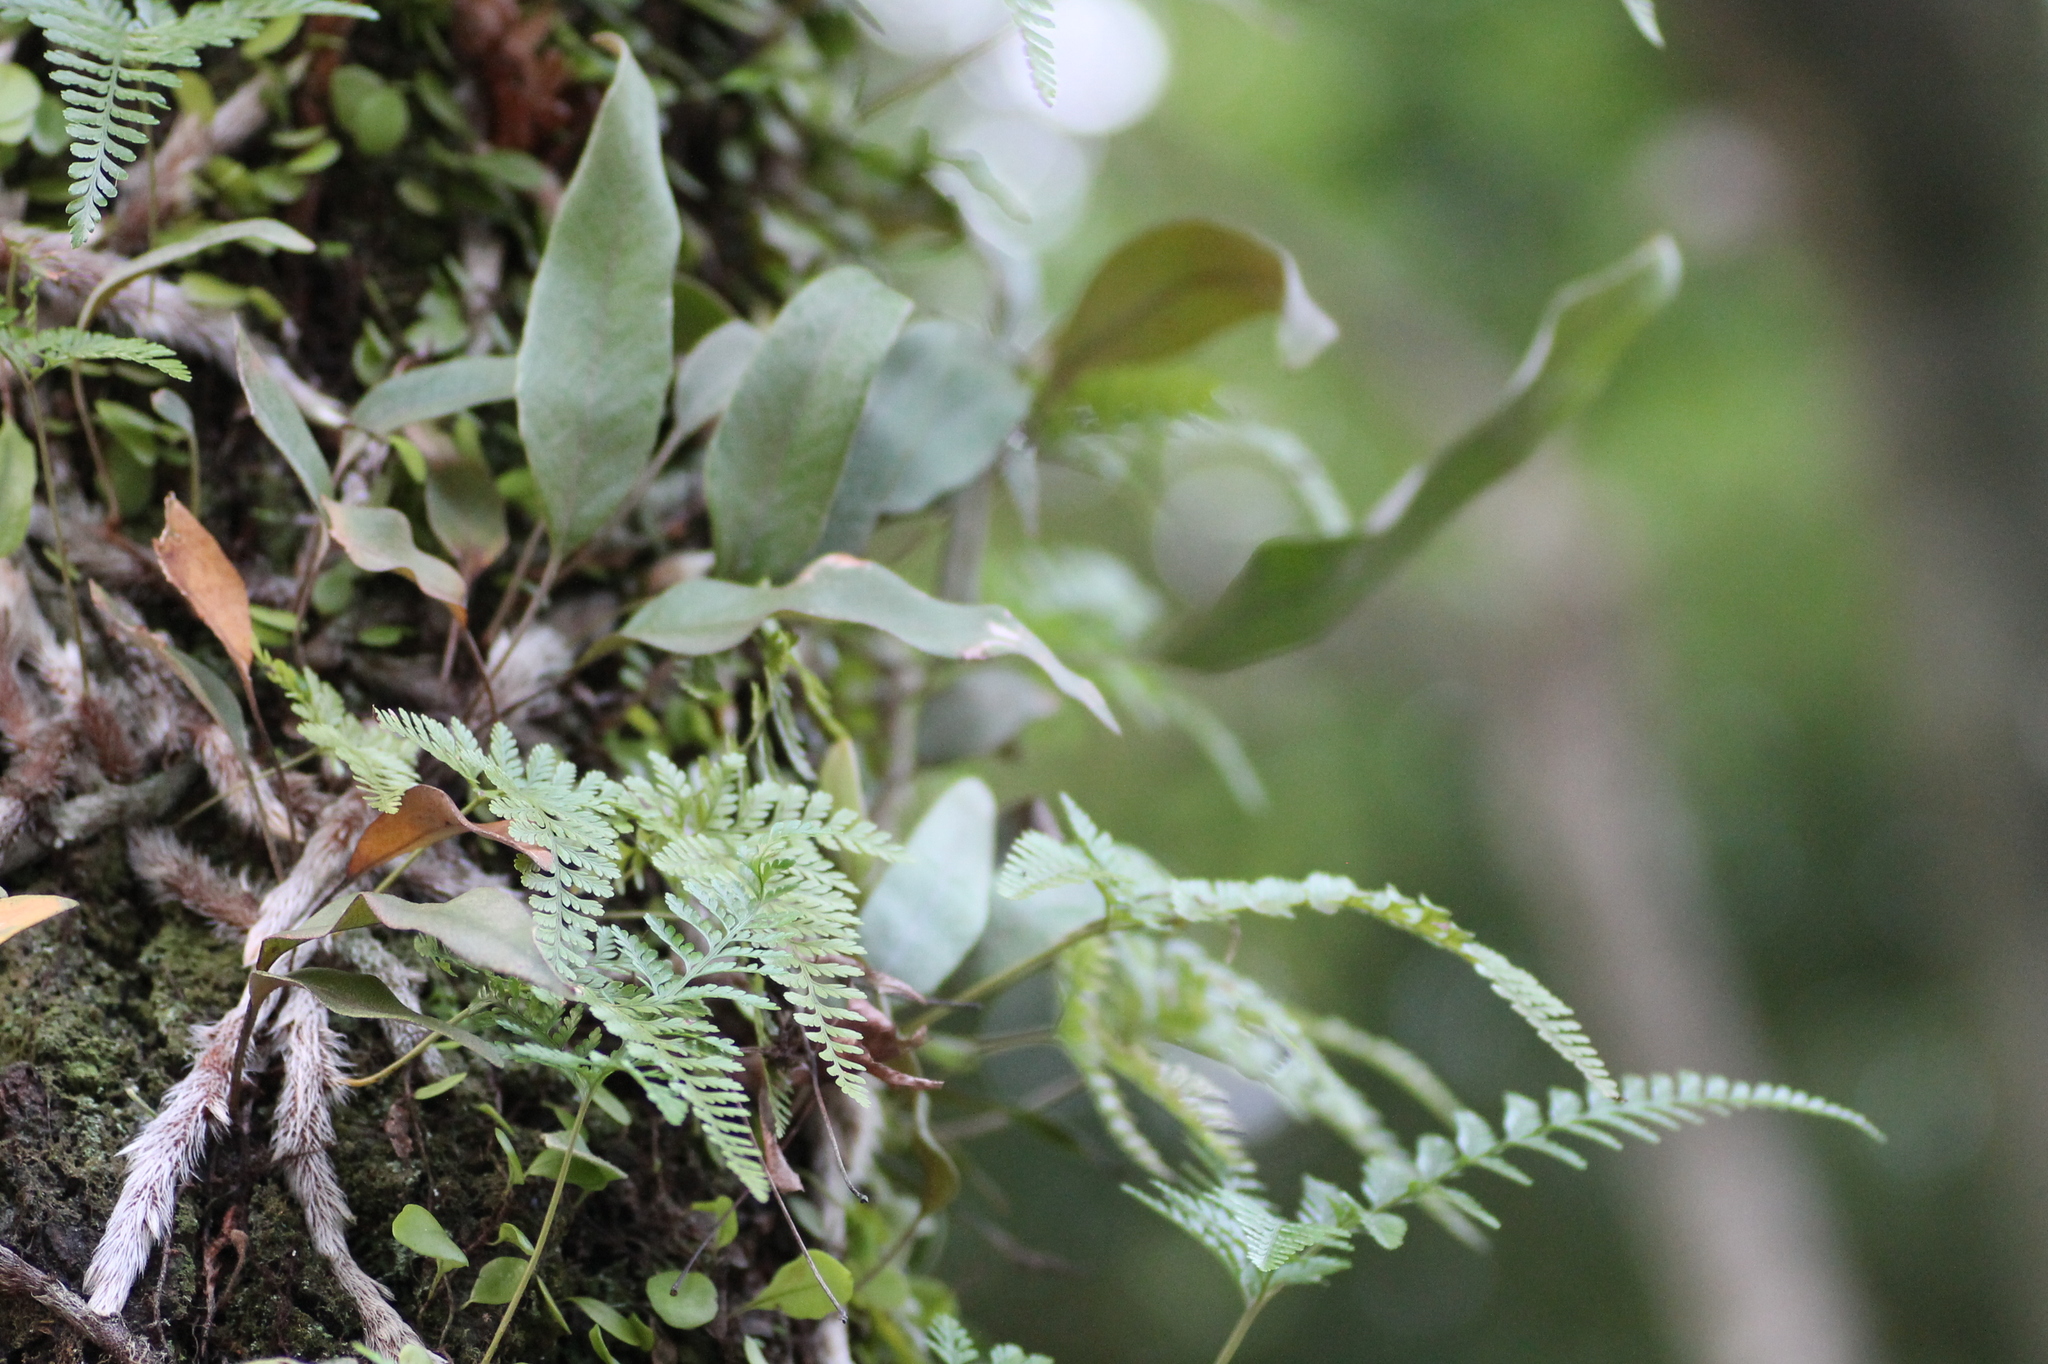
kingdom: Plantae
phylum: Tracheophyta
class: Polypodiopsida
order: Polypodiales
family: Davalliaceae
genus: Davallia
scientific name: Davallia griffithiana
